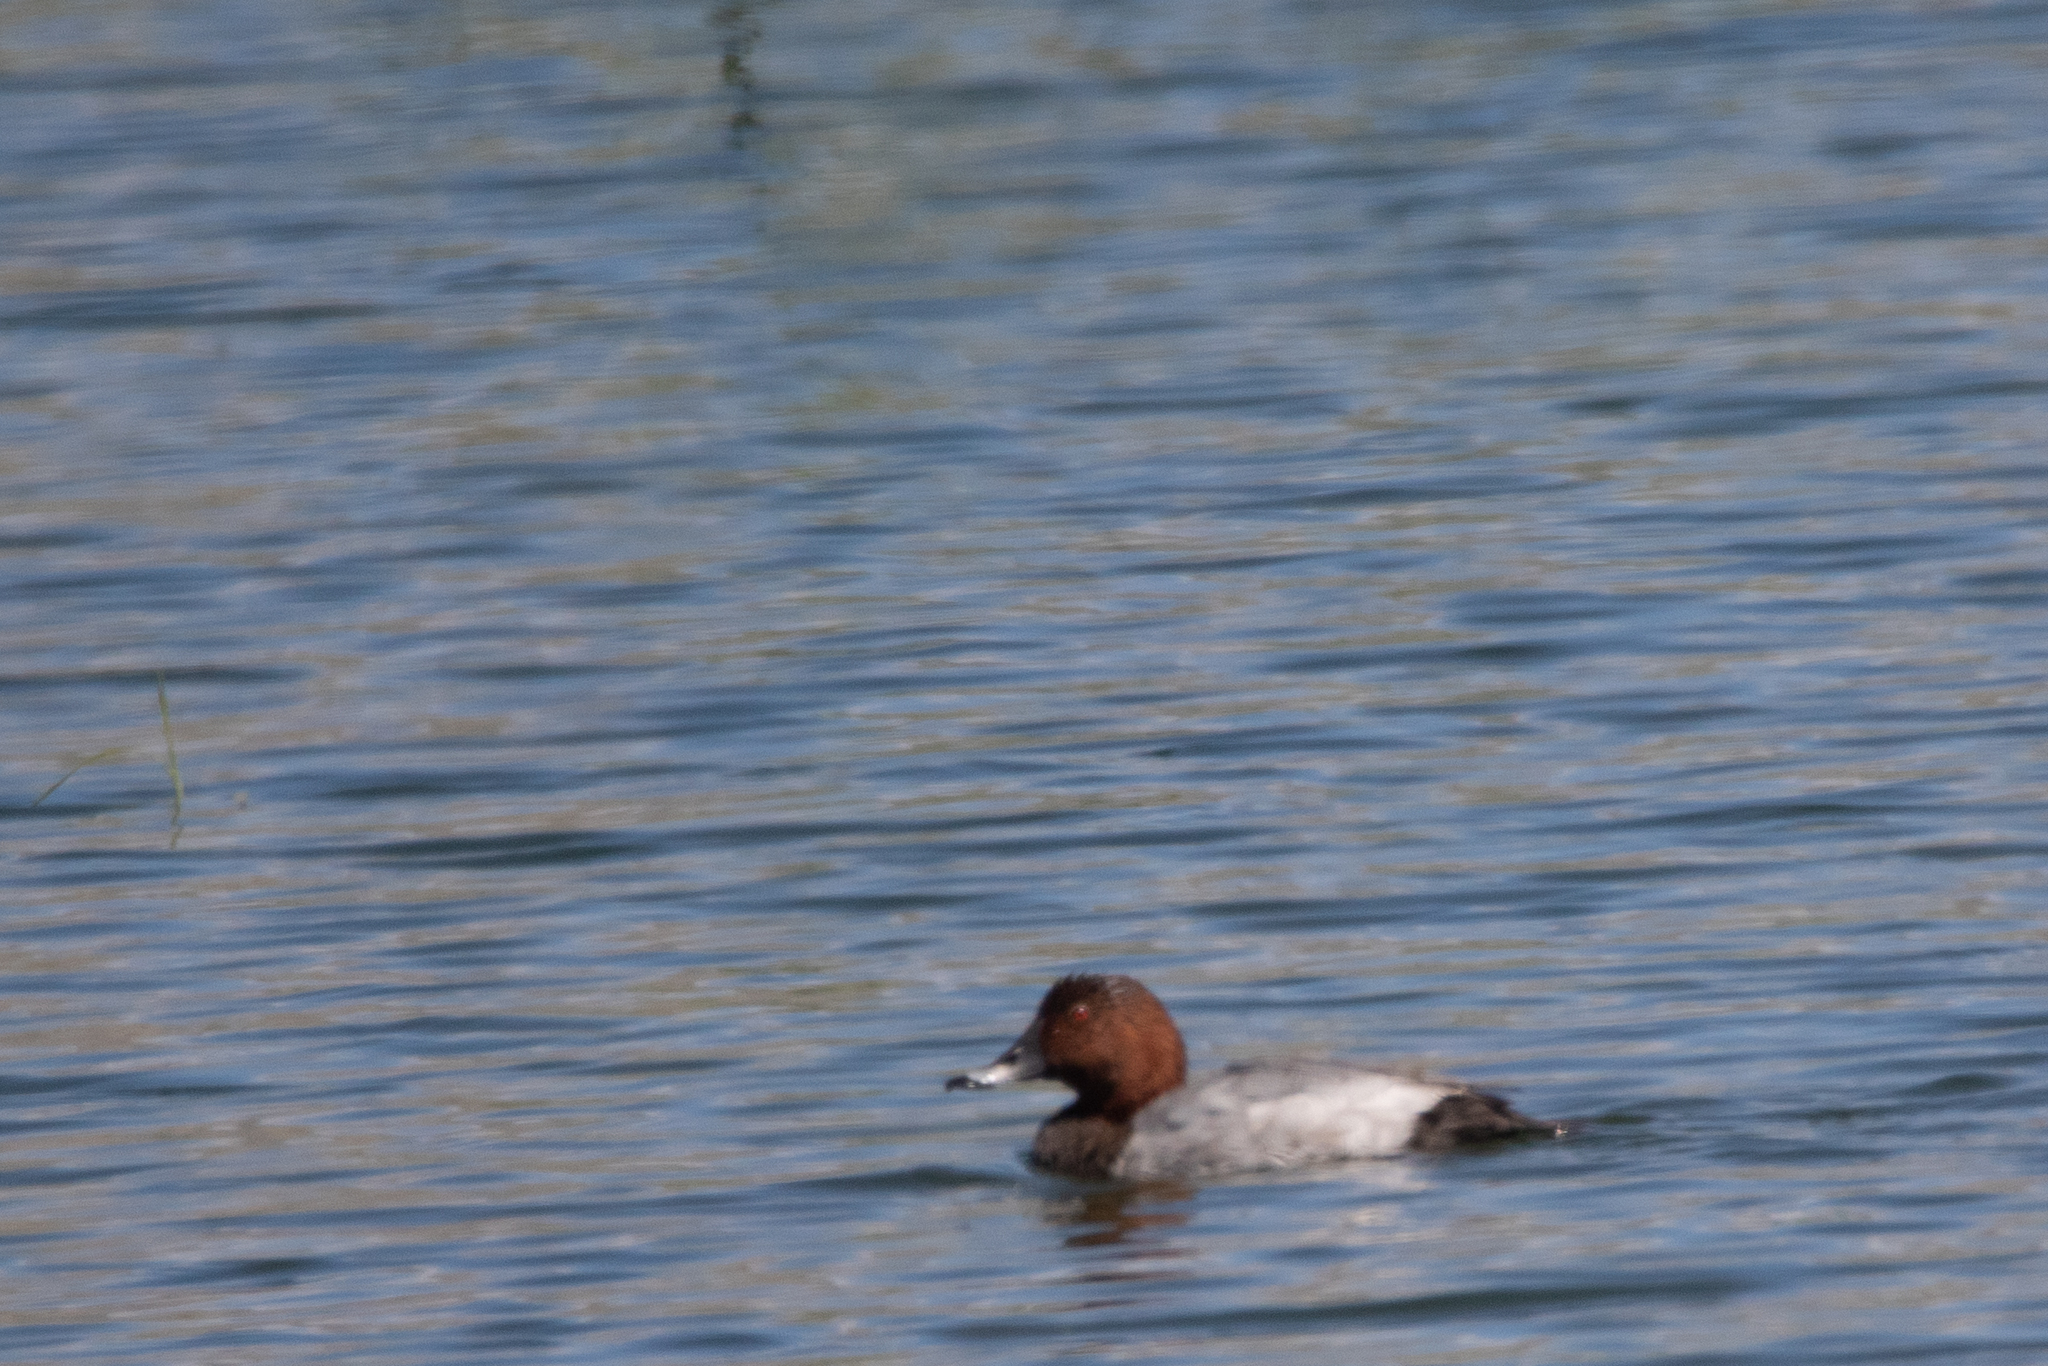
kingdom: Animalia
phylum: Chordata
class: Aves
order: Anseriformes
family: Anatidae
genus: Aythya
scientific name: Aythya ferina
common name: Common pochard
